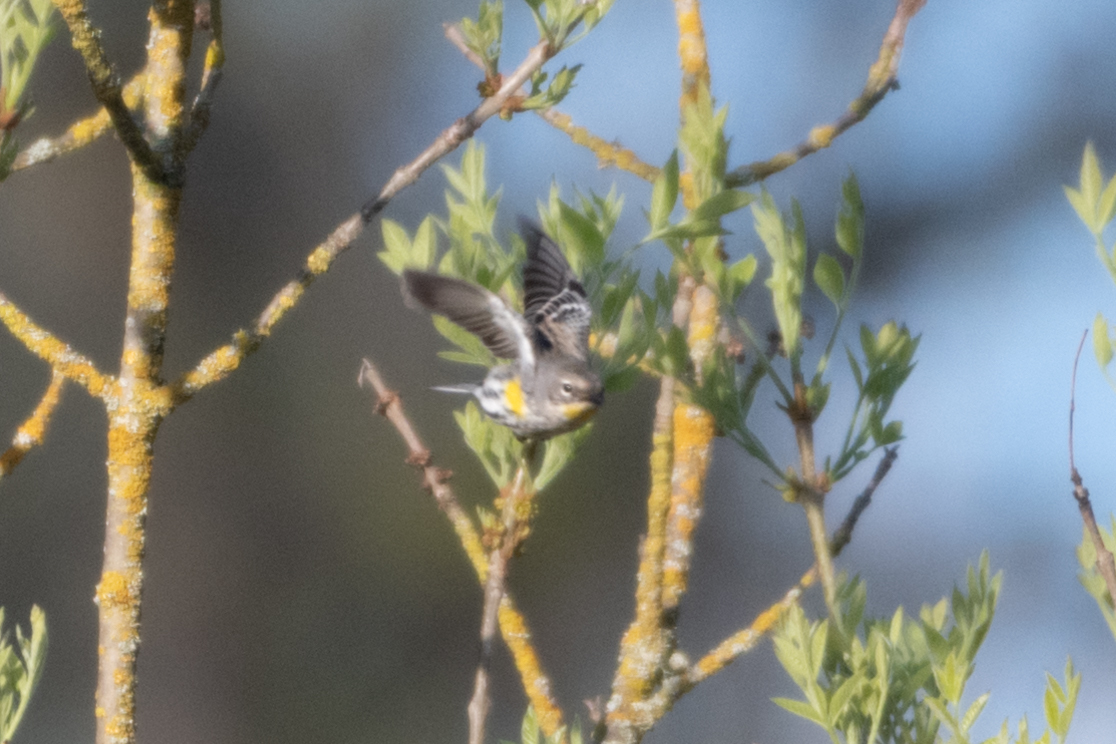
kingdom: Animalia
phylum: Chordata
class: Aves
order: Passeriformes
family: Parulidae
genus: Setophaga
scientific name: Setophaga coronata
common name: Myrtle warbler
